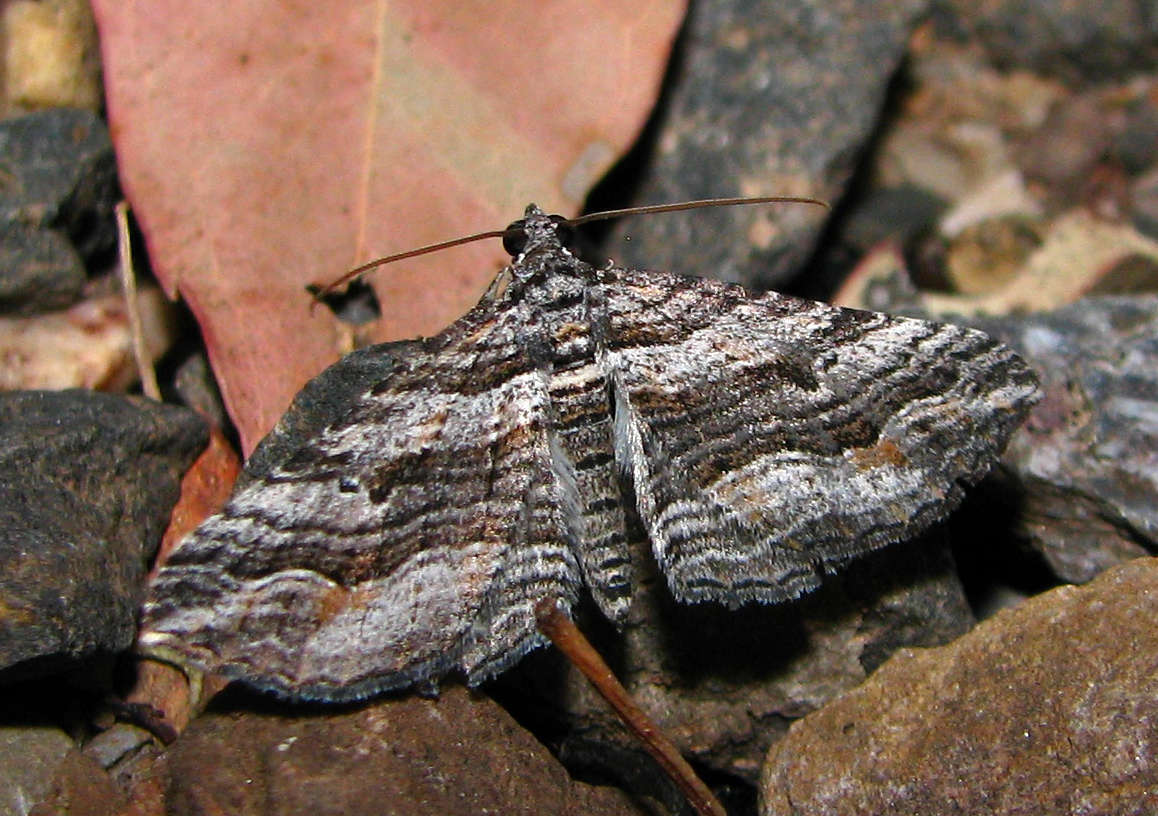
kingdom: Animalia
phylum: Arthropoda
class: Insecta
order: Lepidoptera
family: Geometridae
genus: Chrysolarentia
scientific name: Chrysolarentia severata
